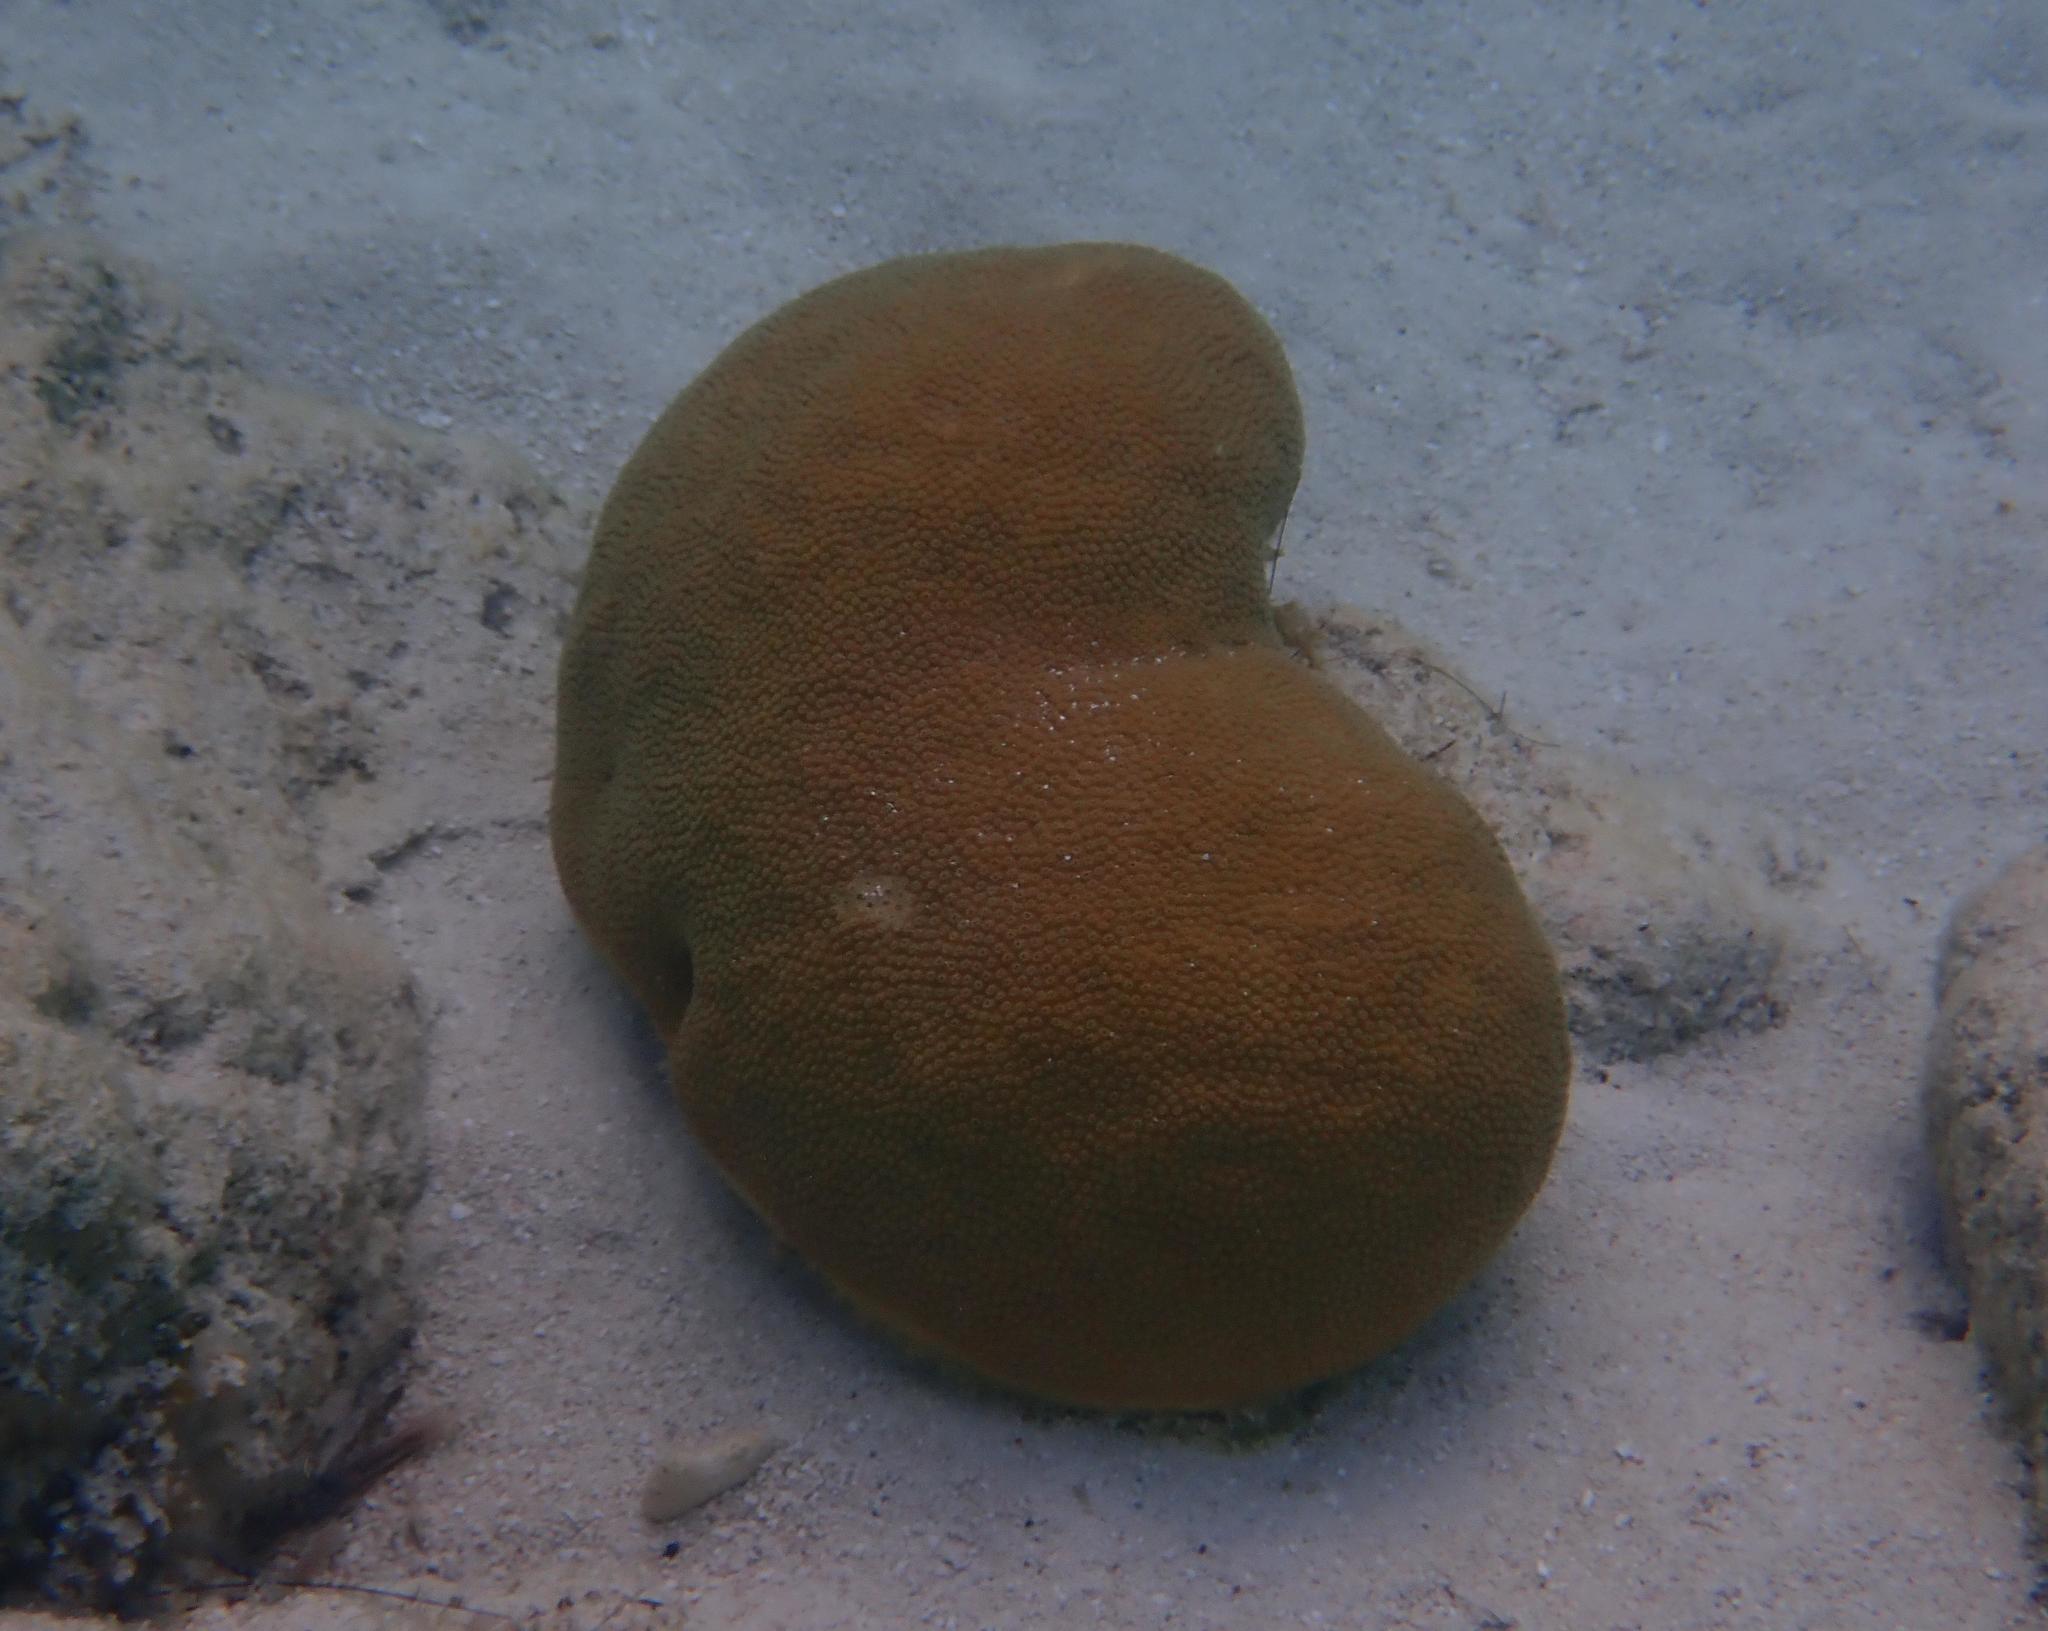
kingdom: Animalia
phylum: Cnidaria
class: Anthozoa
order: Scleractinia
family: Rhizangiidae
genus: Siderastrea
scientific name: Siderastrea siderea
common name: Massive starlet coral
